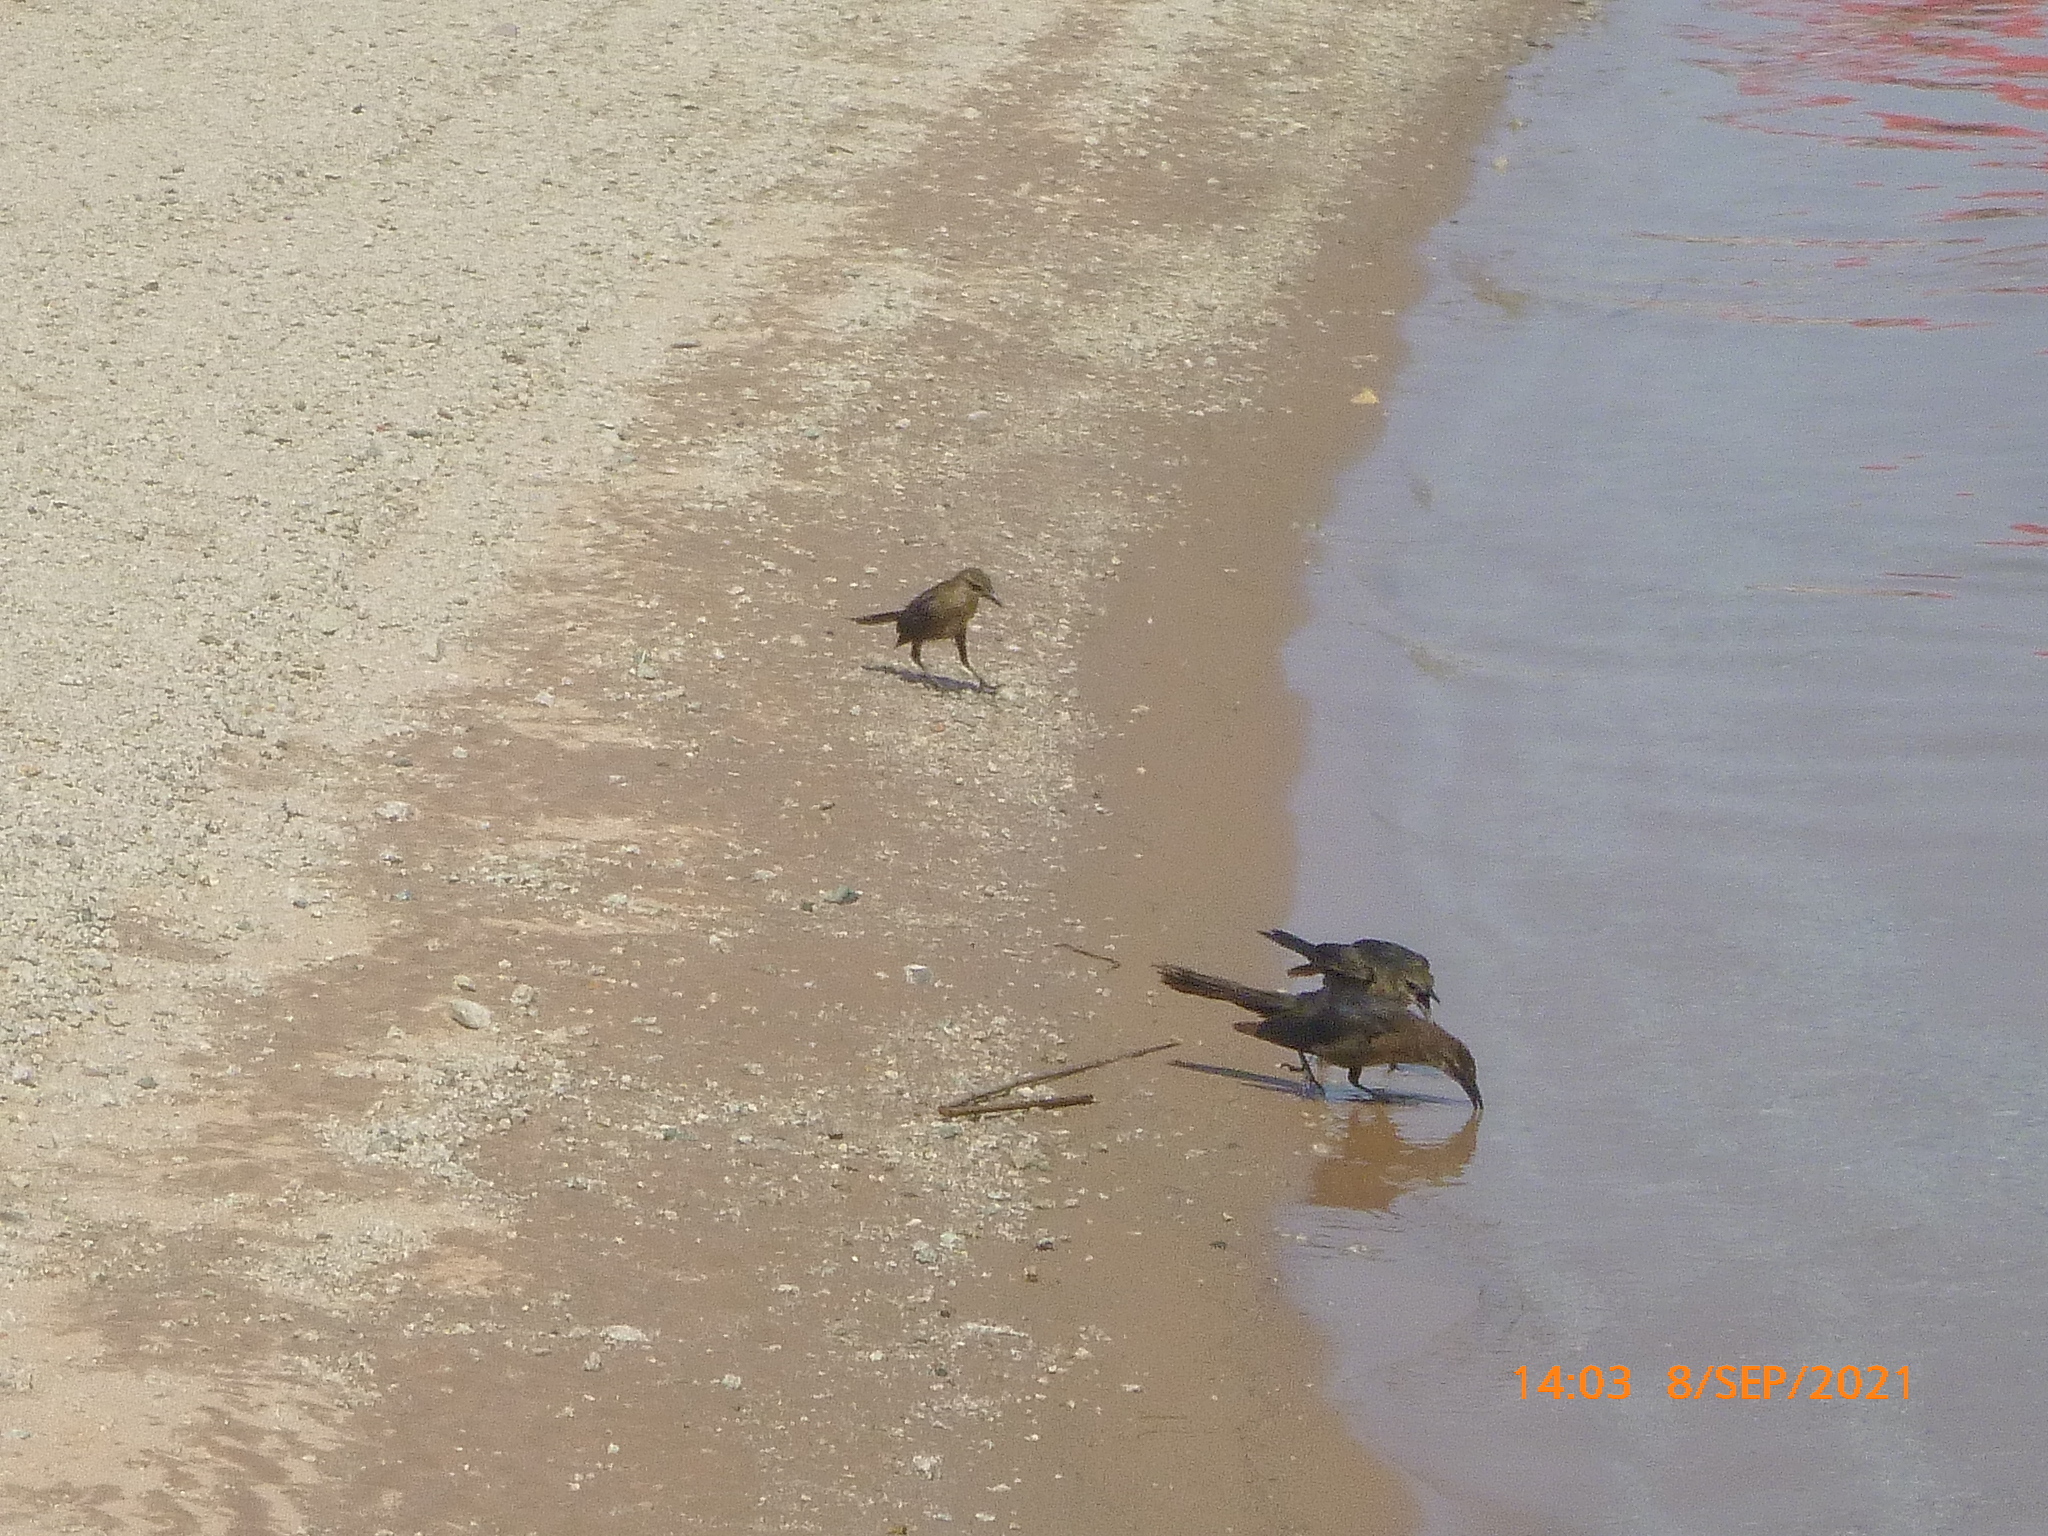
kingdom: Animalia
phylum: Chordata
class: Aves
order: Passeriformes
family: Icteridae
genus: Quiscalus
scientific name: Quiscalus mexicanus
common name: Great-tailed grackle
